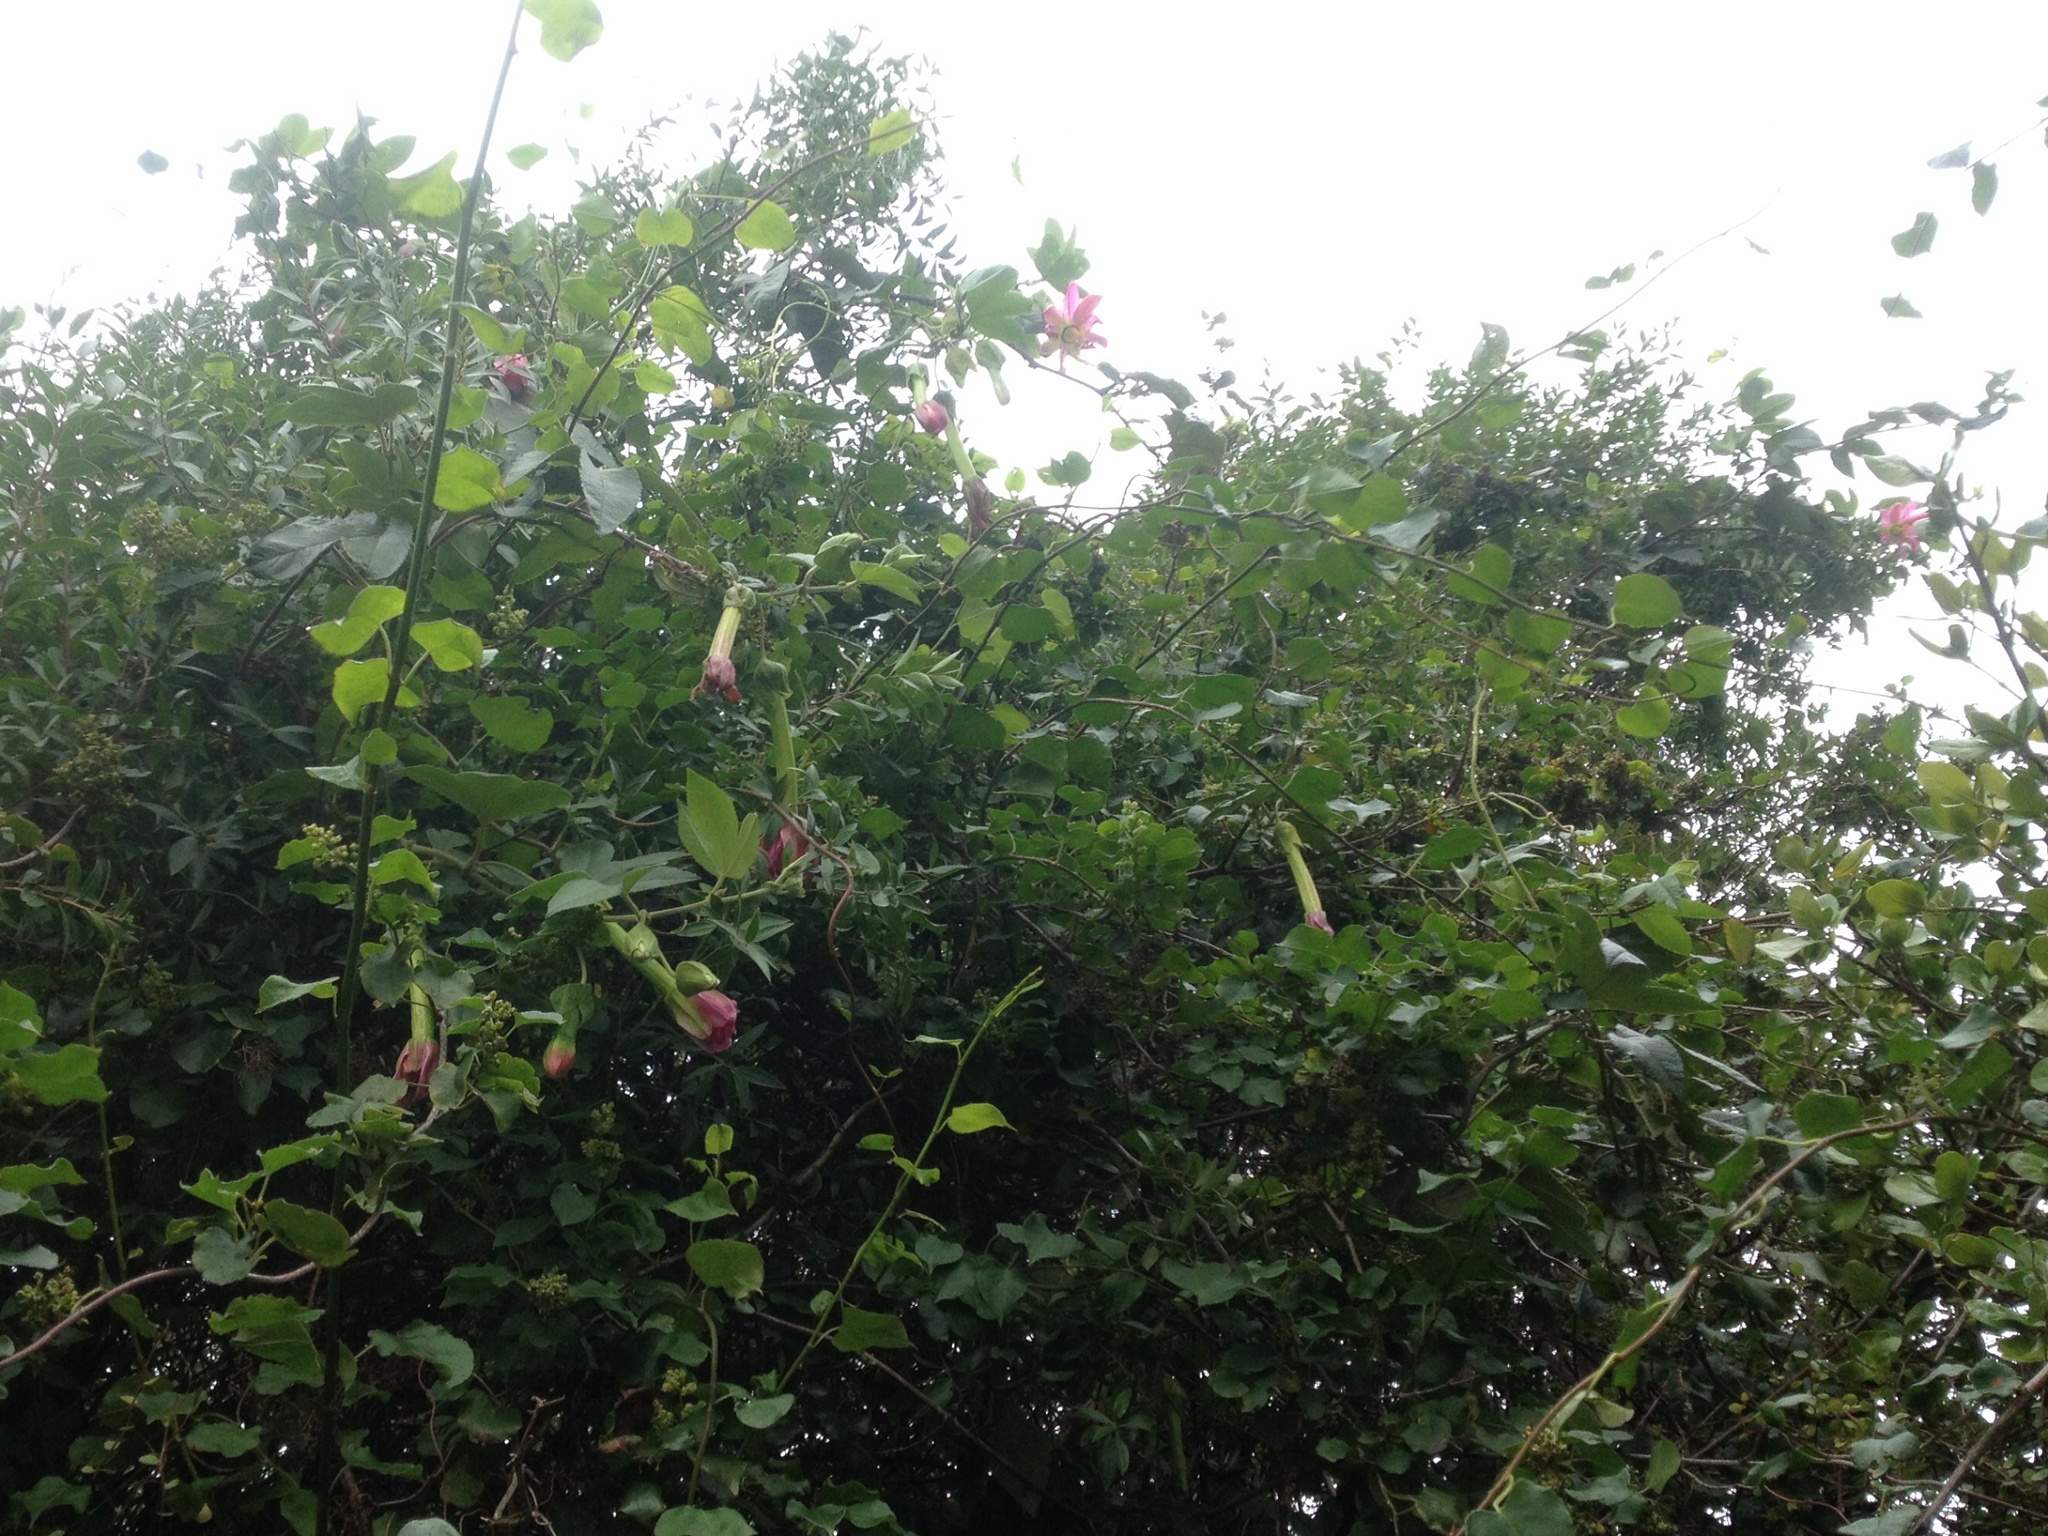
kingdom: Plantae
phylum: Tracheophyta
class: Magnoliopsida
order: Malpighiales
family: Passifloraceae
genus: Passiflora
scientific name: Passiflora tripartita
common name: Banana poka
